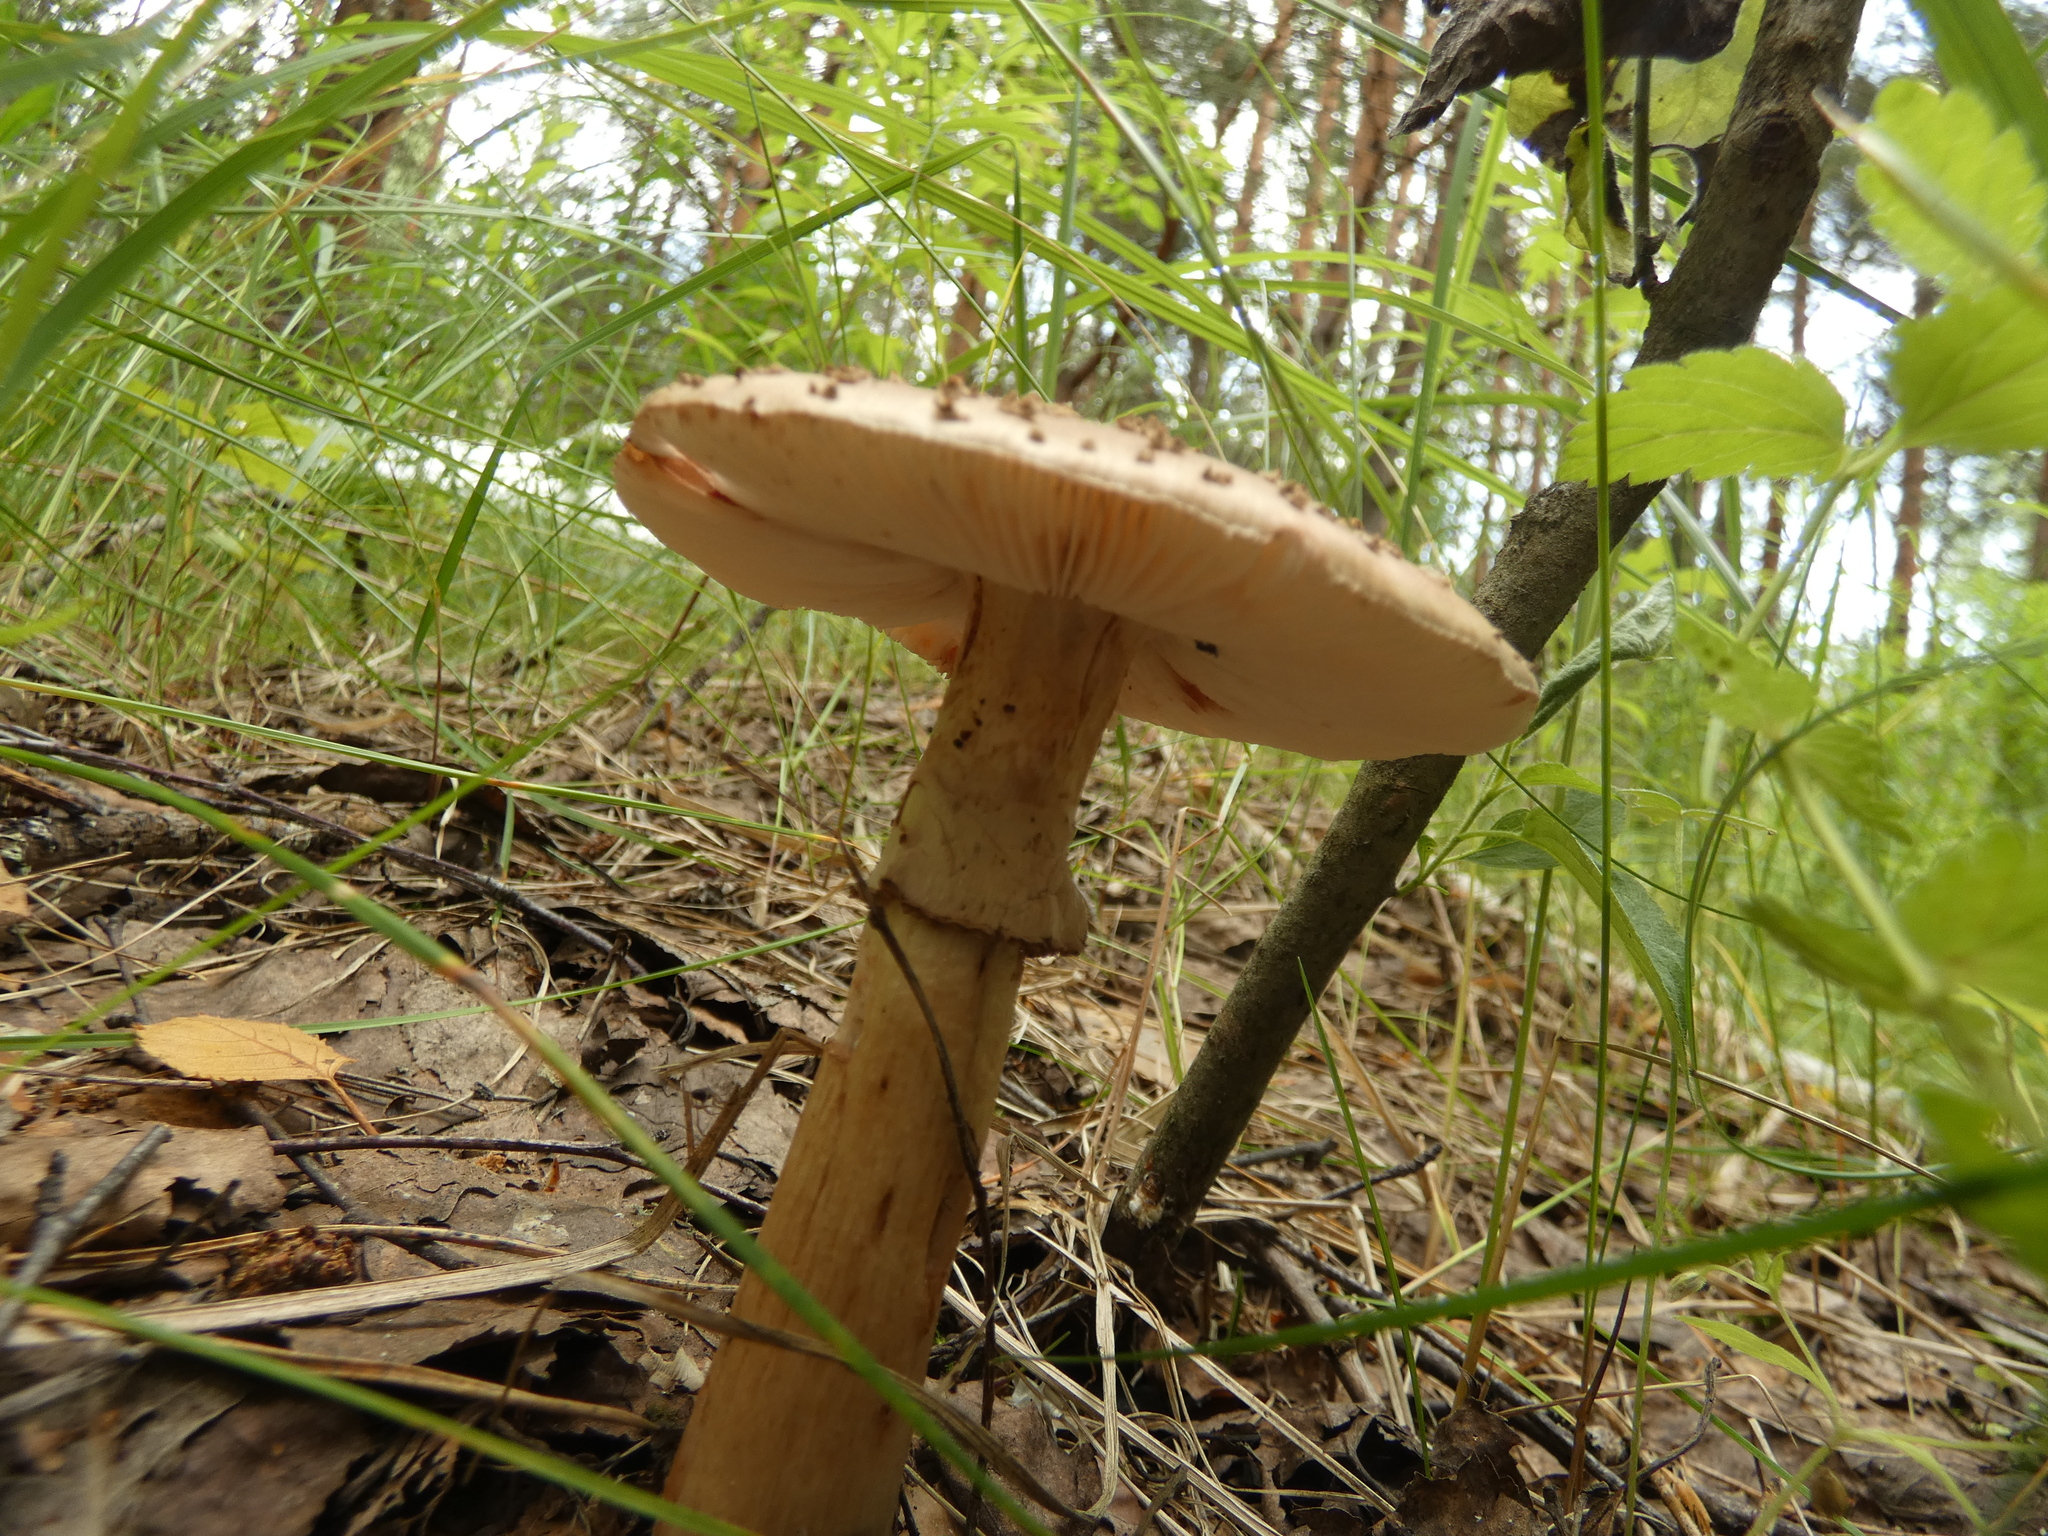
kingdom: Fungi
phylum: Basidiomycota
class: Agaricomycetes
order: Agaricales
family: Amanitaceae
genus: Amanita
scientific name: Amanita rubescens
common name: Blusher
